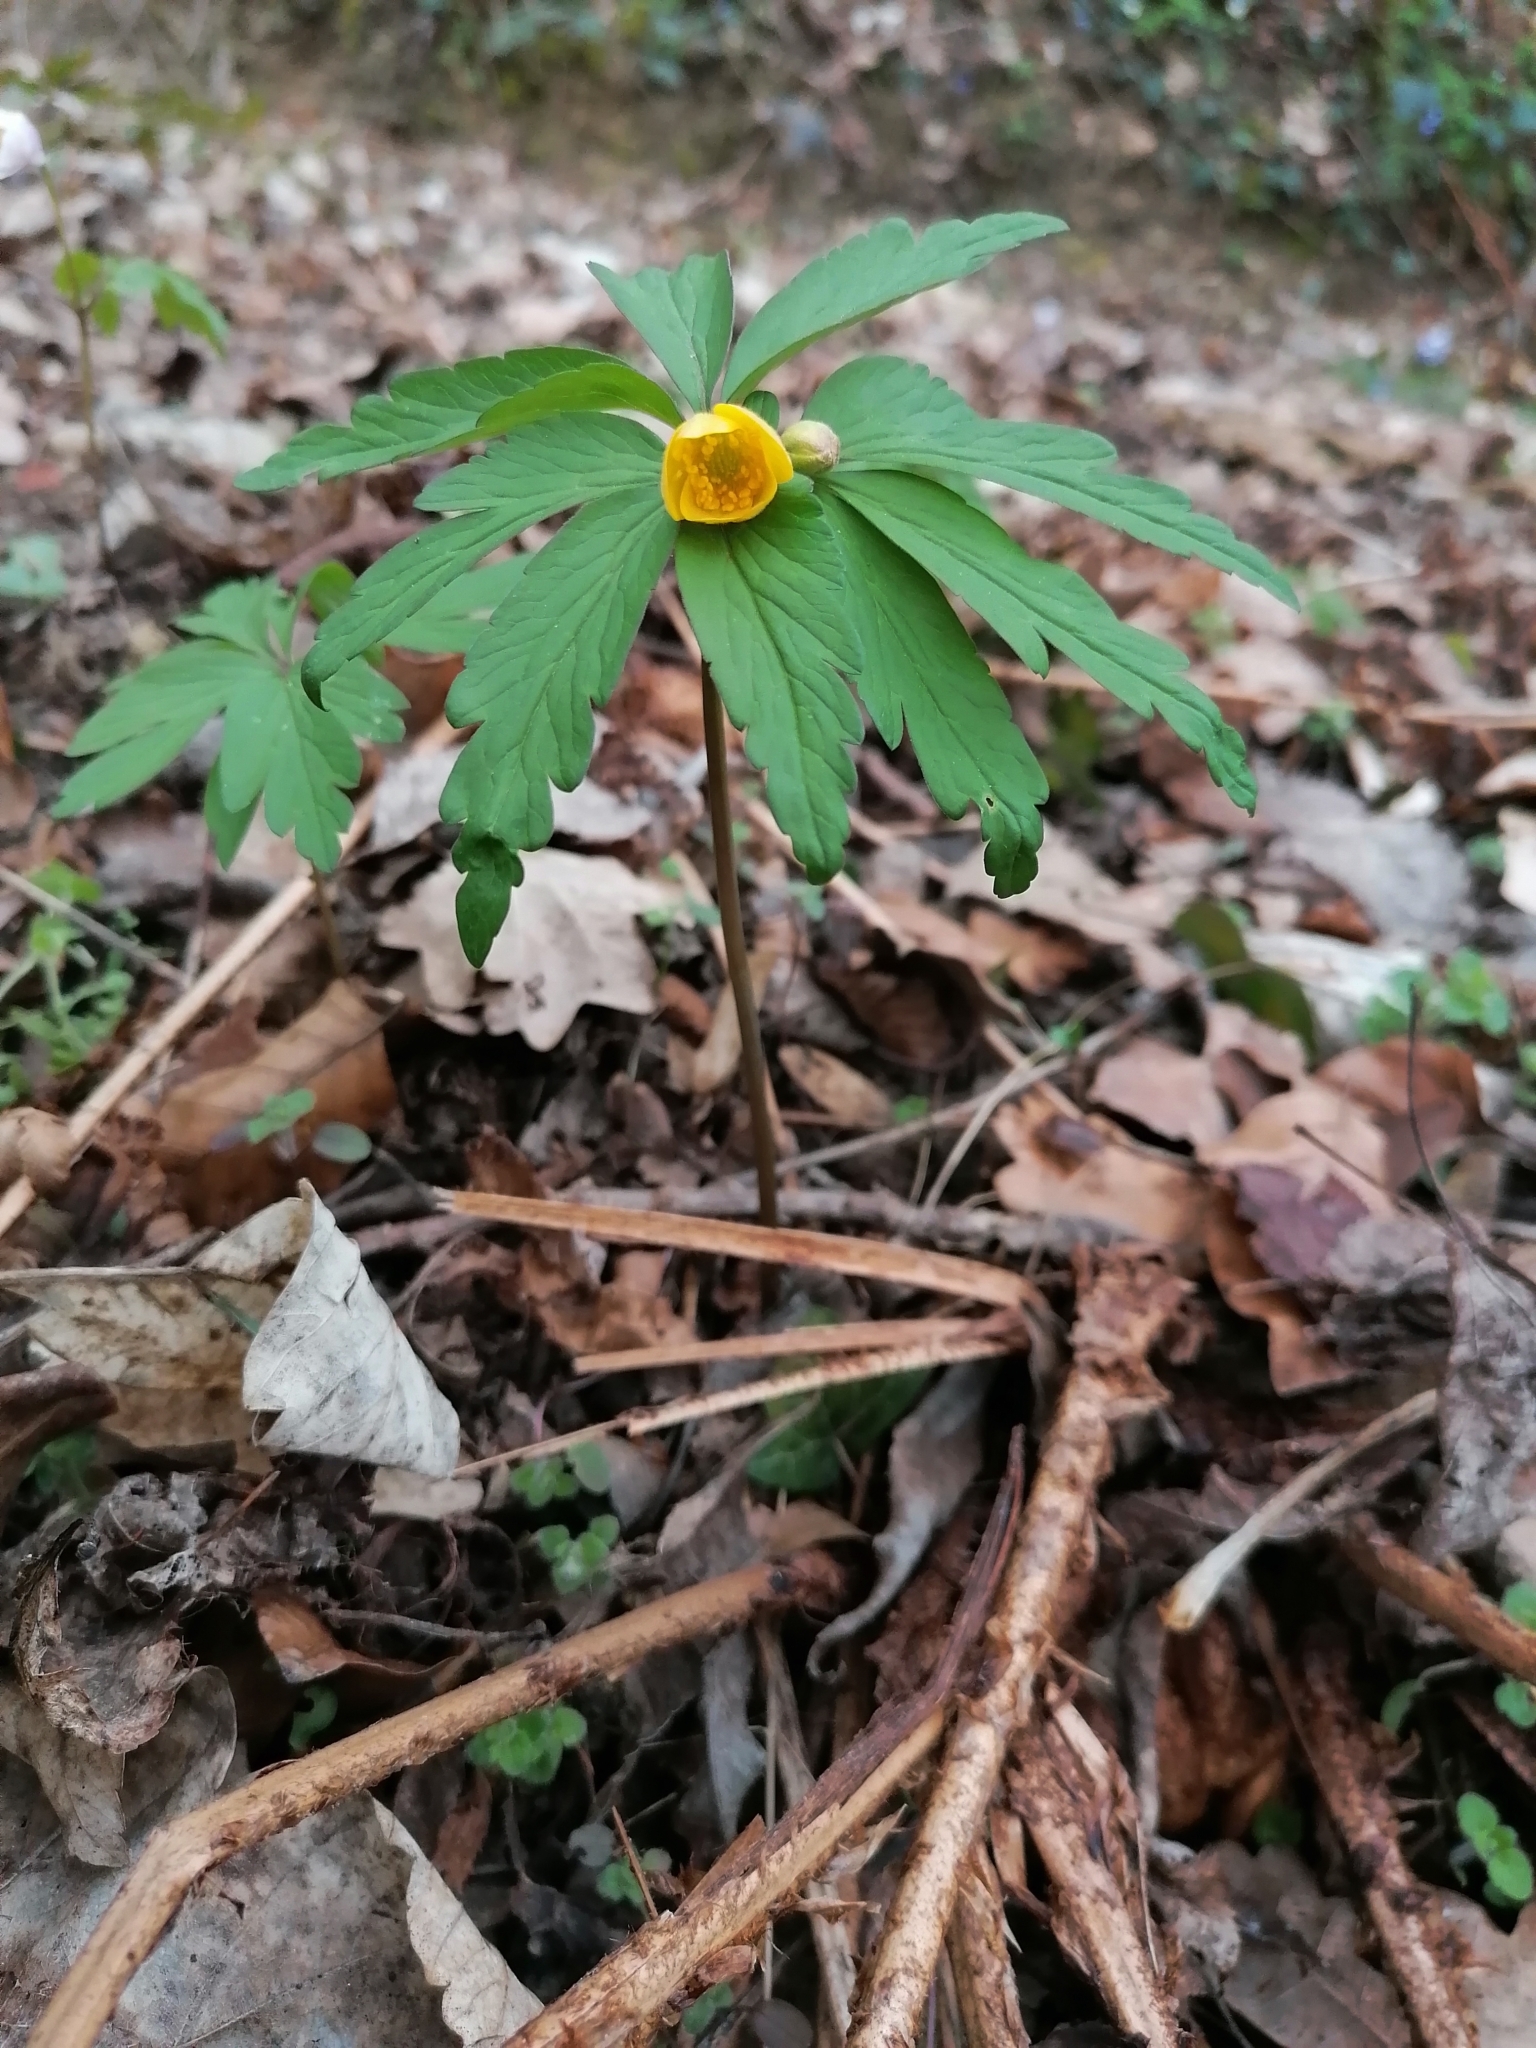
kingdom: Plantae
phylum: Tracheophyta
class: Magnoliopsida
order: Ranunculales
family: Ranunculaceae
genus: Anemone
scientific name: Anemone ranunculoides
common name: Yellow anemone
